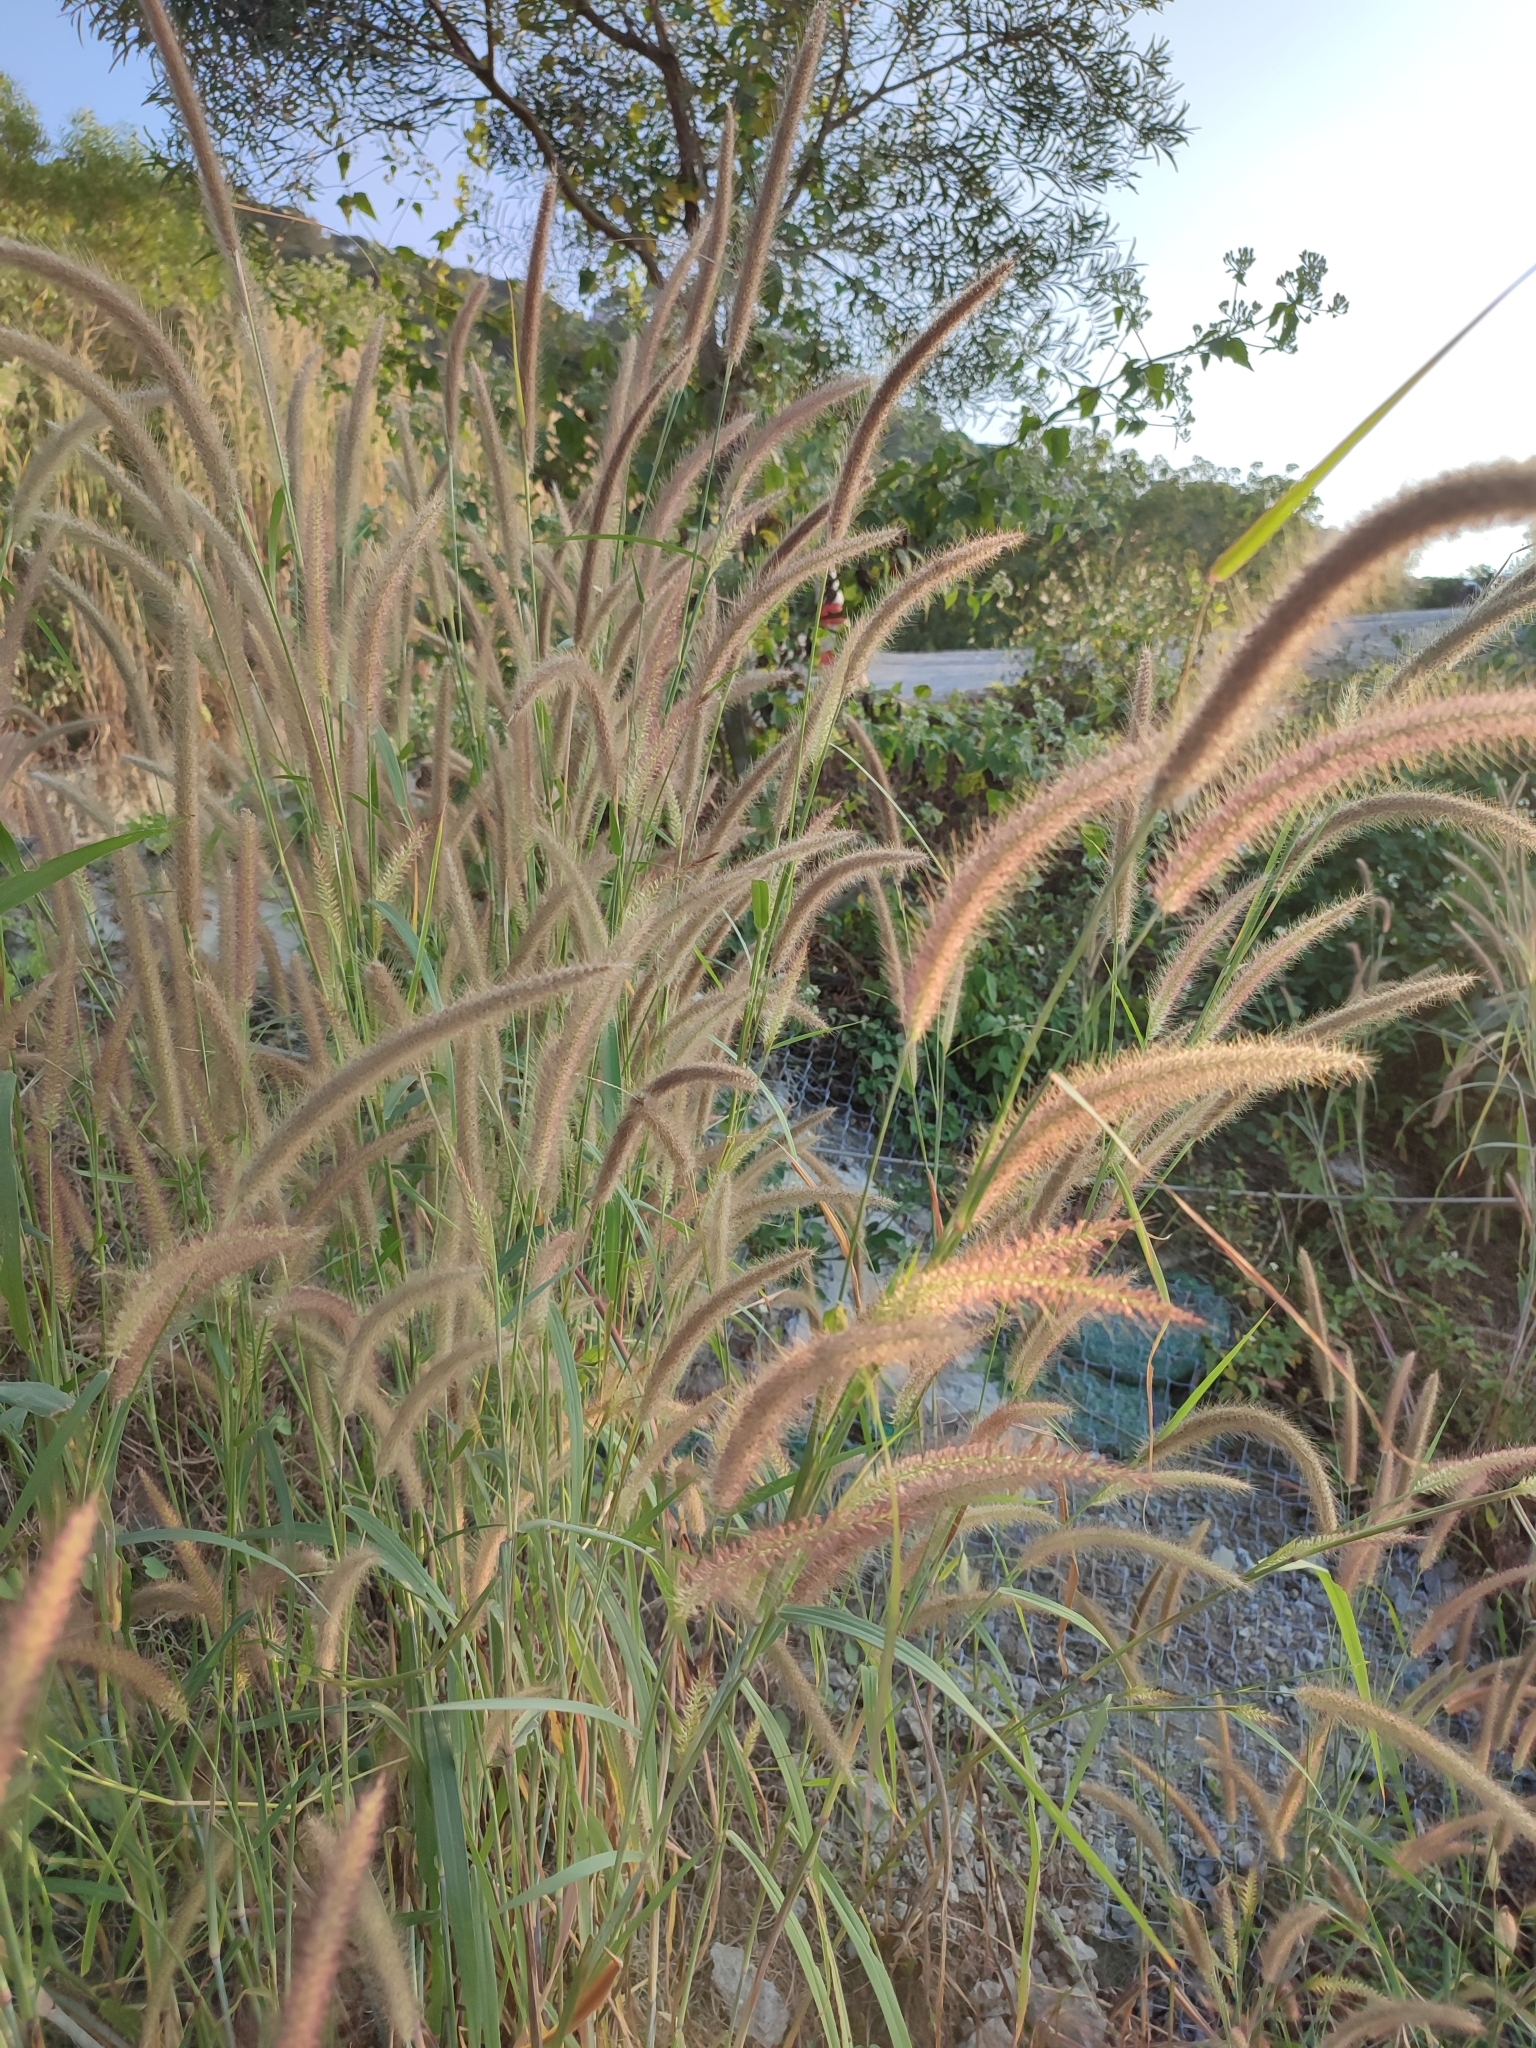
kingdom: Plantae
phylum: Tracheophyta
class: Liliopsida
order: Poales
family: Poaceae
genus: Cenchrus
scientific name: Cenchrus setosus
